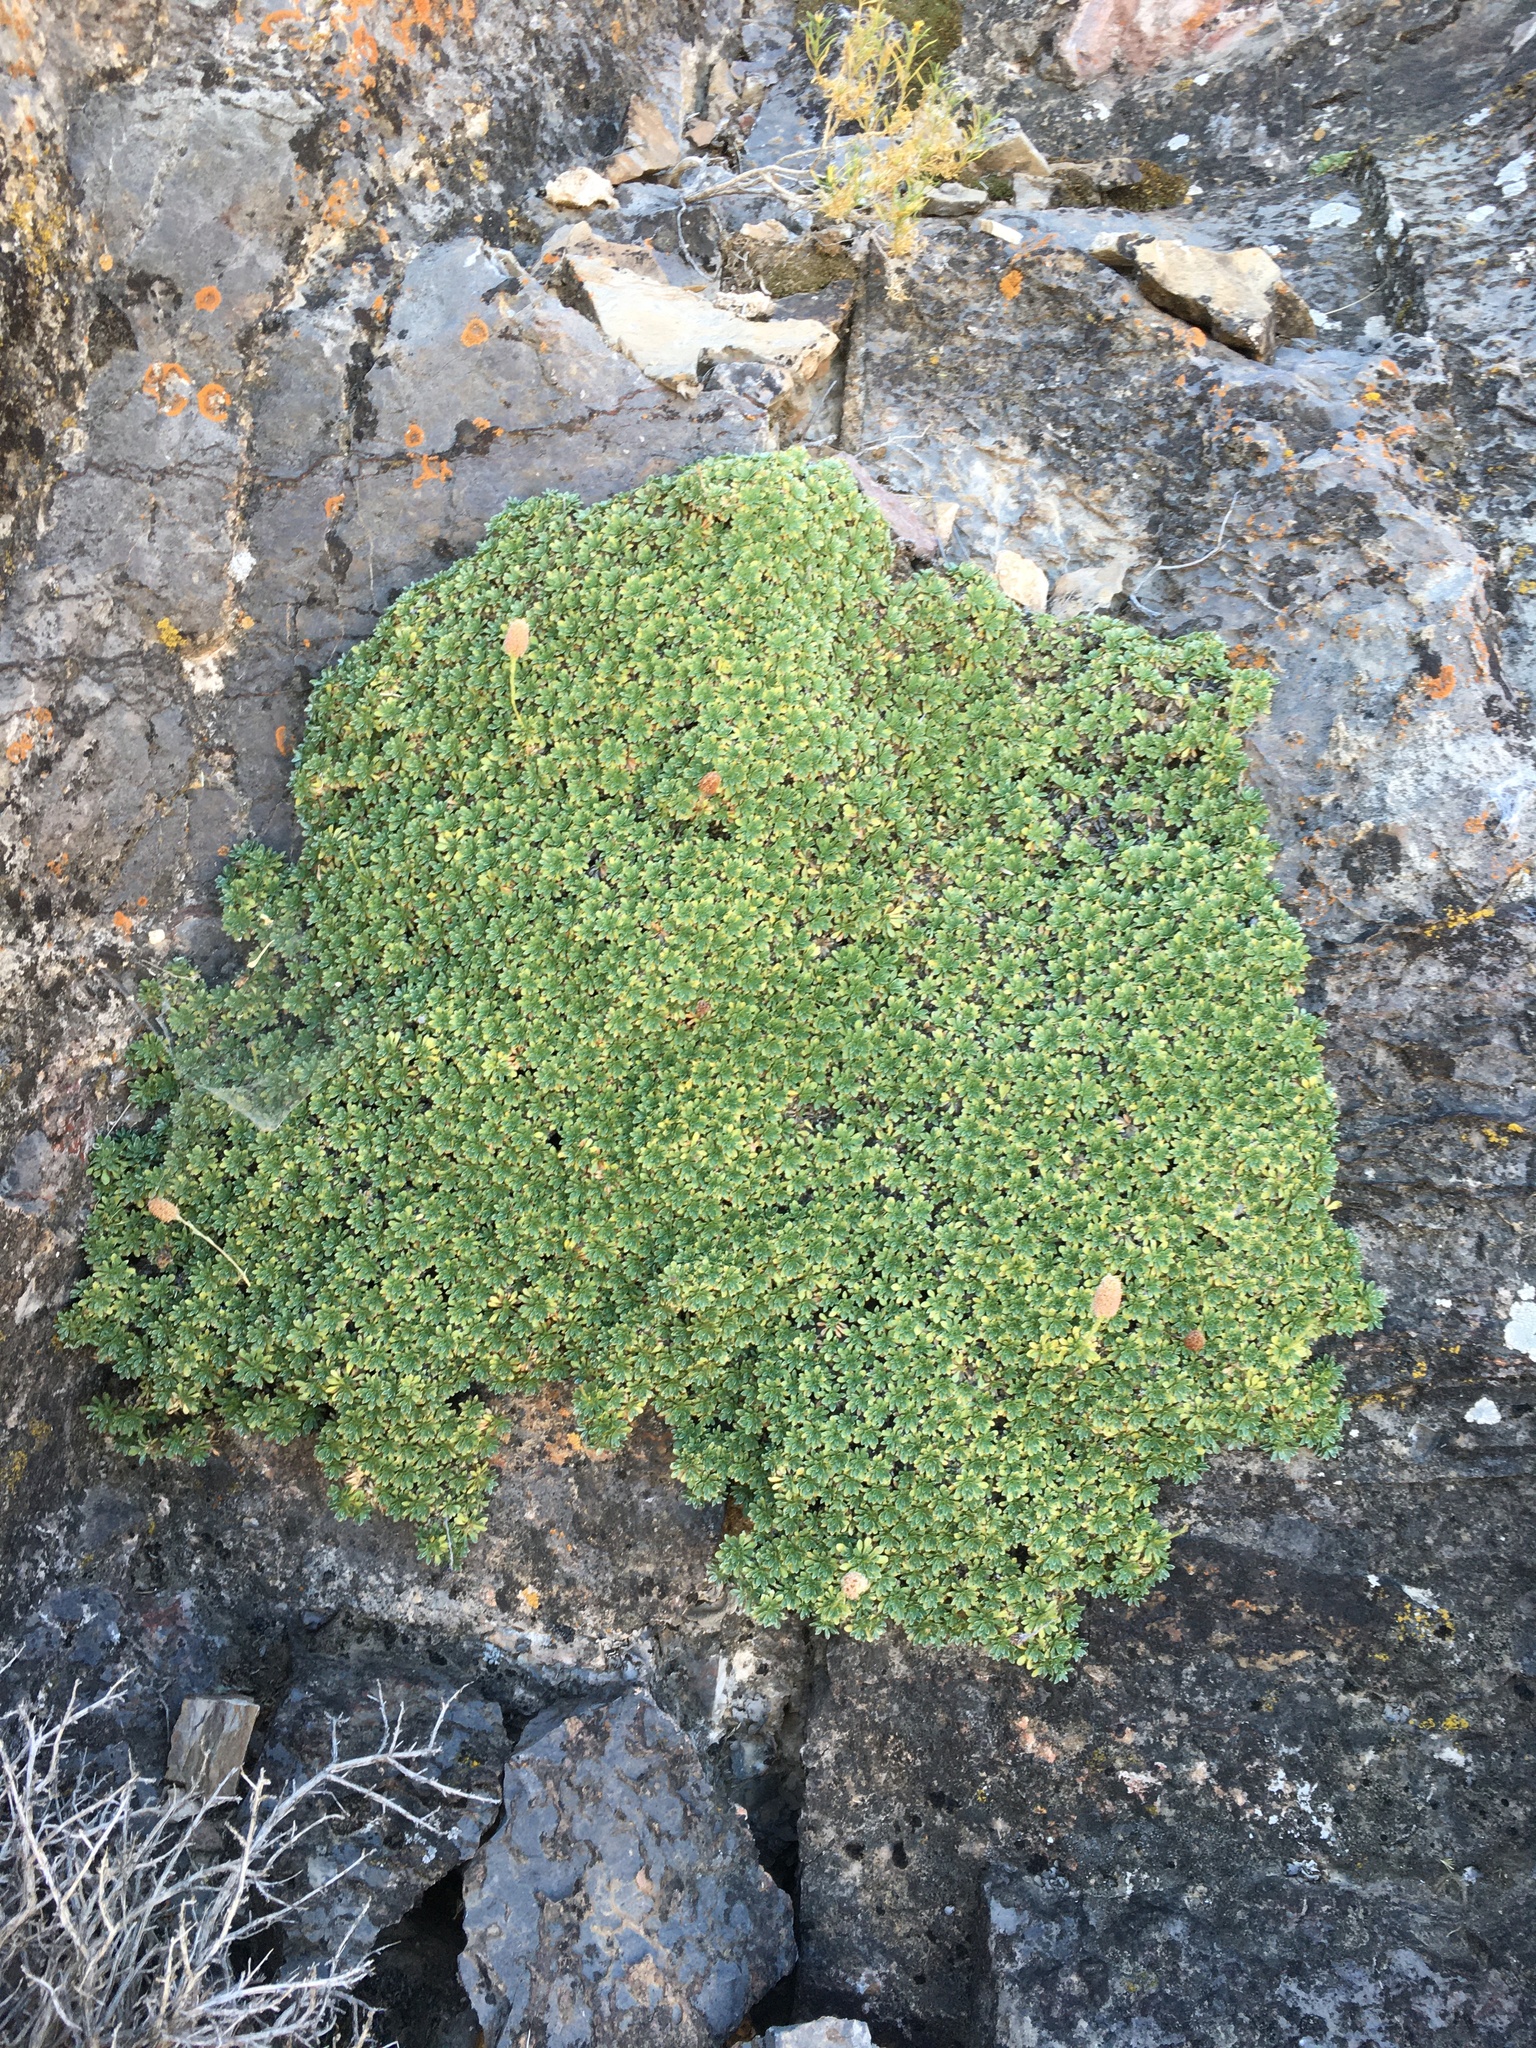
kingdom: Plantae
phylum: Tracheophyta
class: Magnoliopsida
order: Rosales
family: Rosaceae
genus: Petrophytum
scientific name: Petrophytum caespitosum
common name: Mat rockspirea
